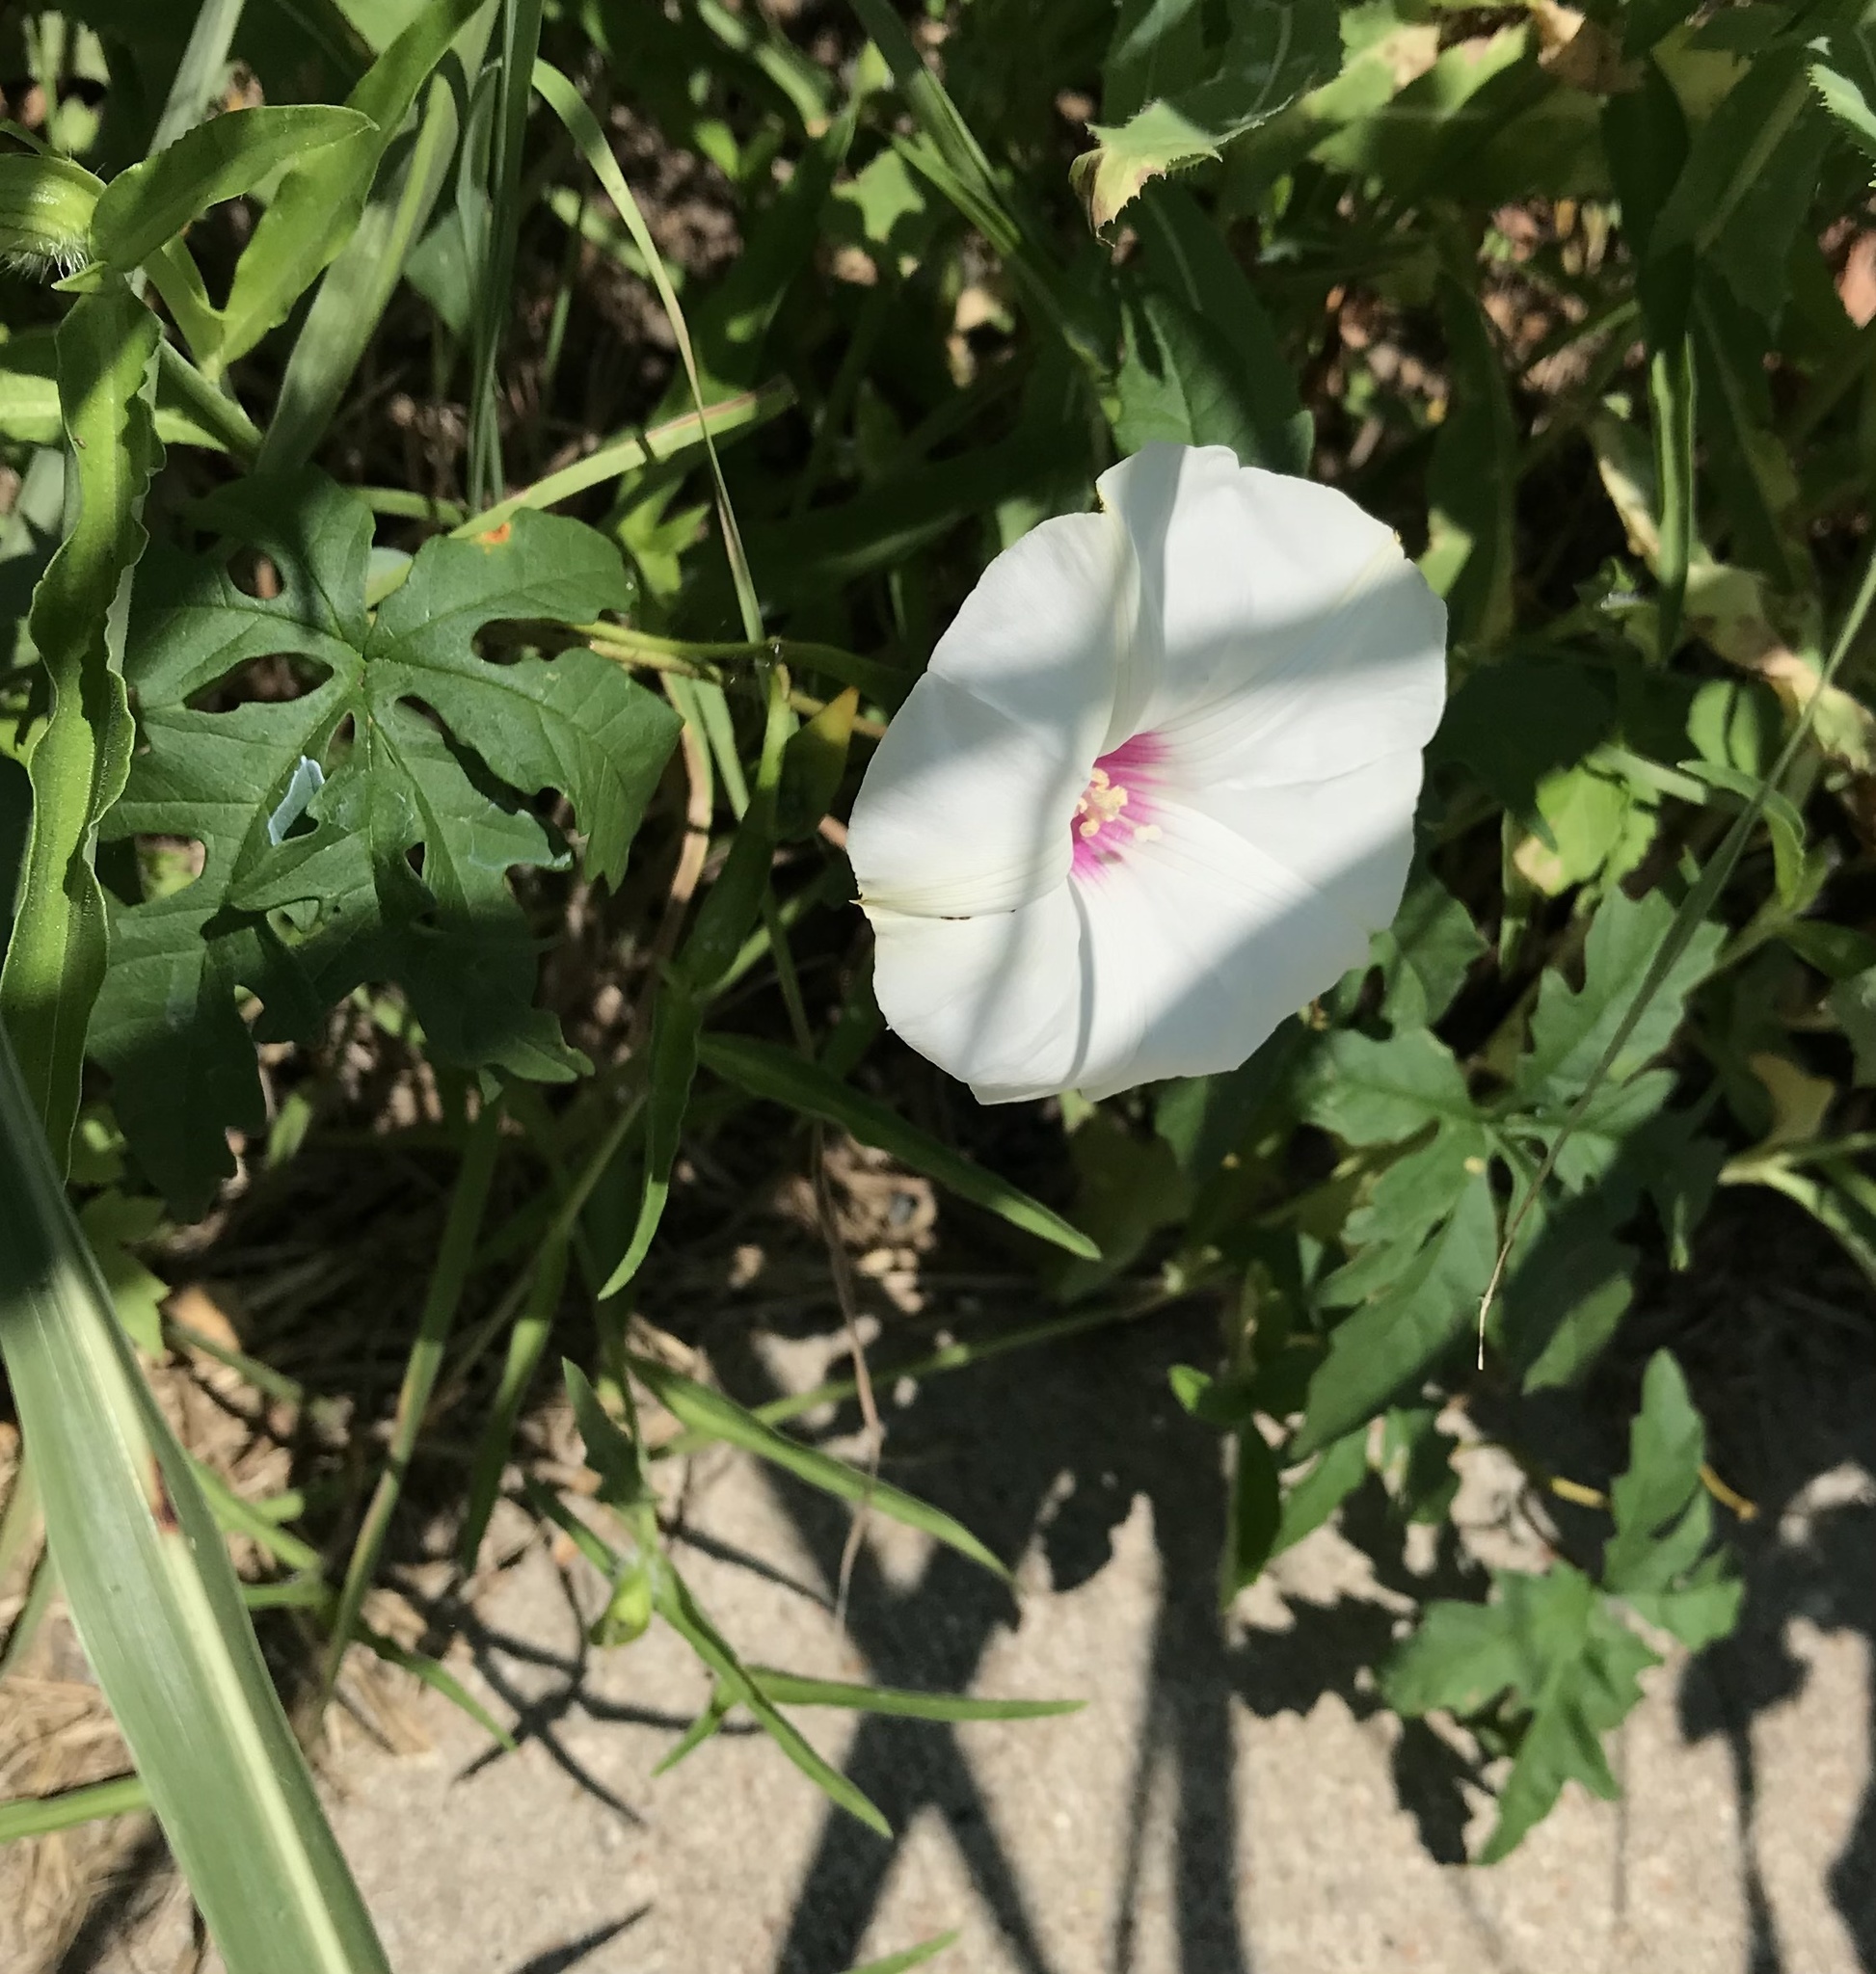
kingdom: Plantae
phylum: Tracheophyta
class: Magnoliopsida
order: Solanales
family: Convolvulaceae
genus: Distimake
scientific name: Distimake dissectus
